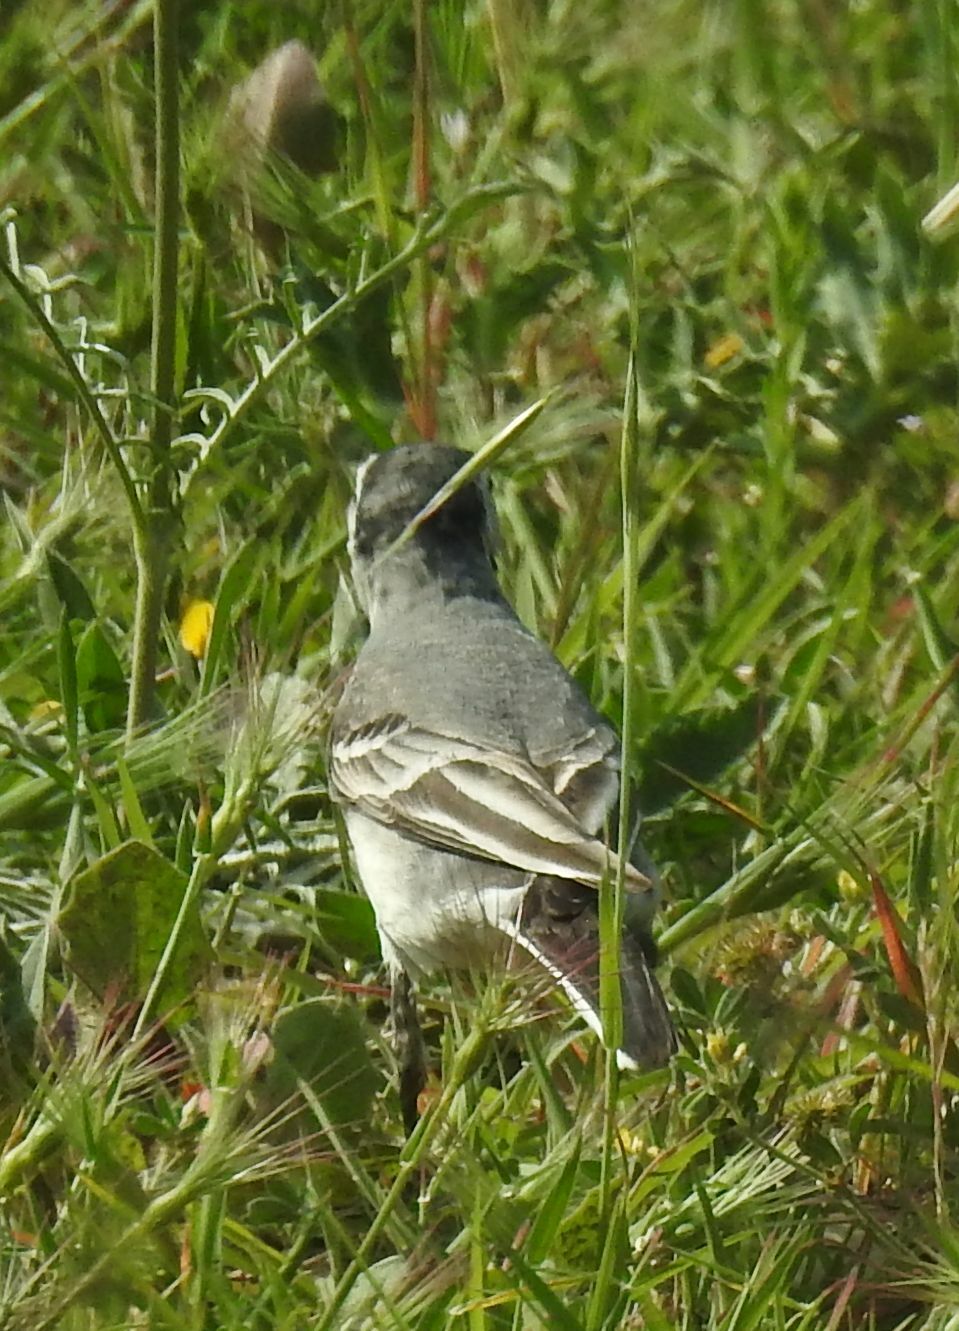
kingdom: Animalia
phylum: Chordata
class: Aves
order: Passeriformes
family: Motacillidae
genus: Motacilla
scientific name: Motacilla alba
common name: White wagtail
